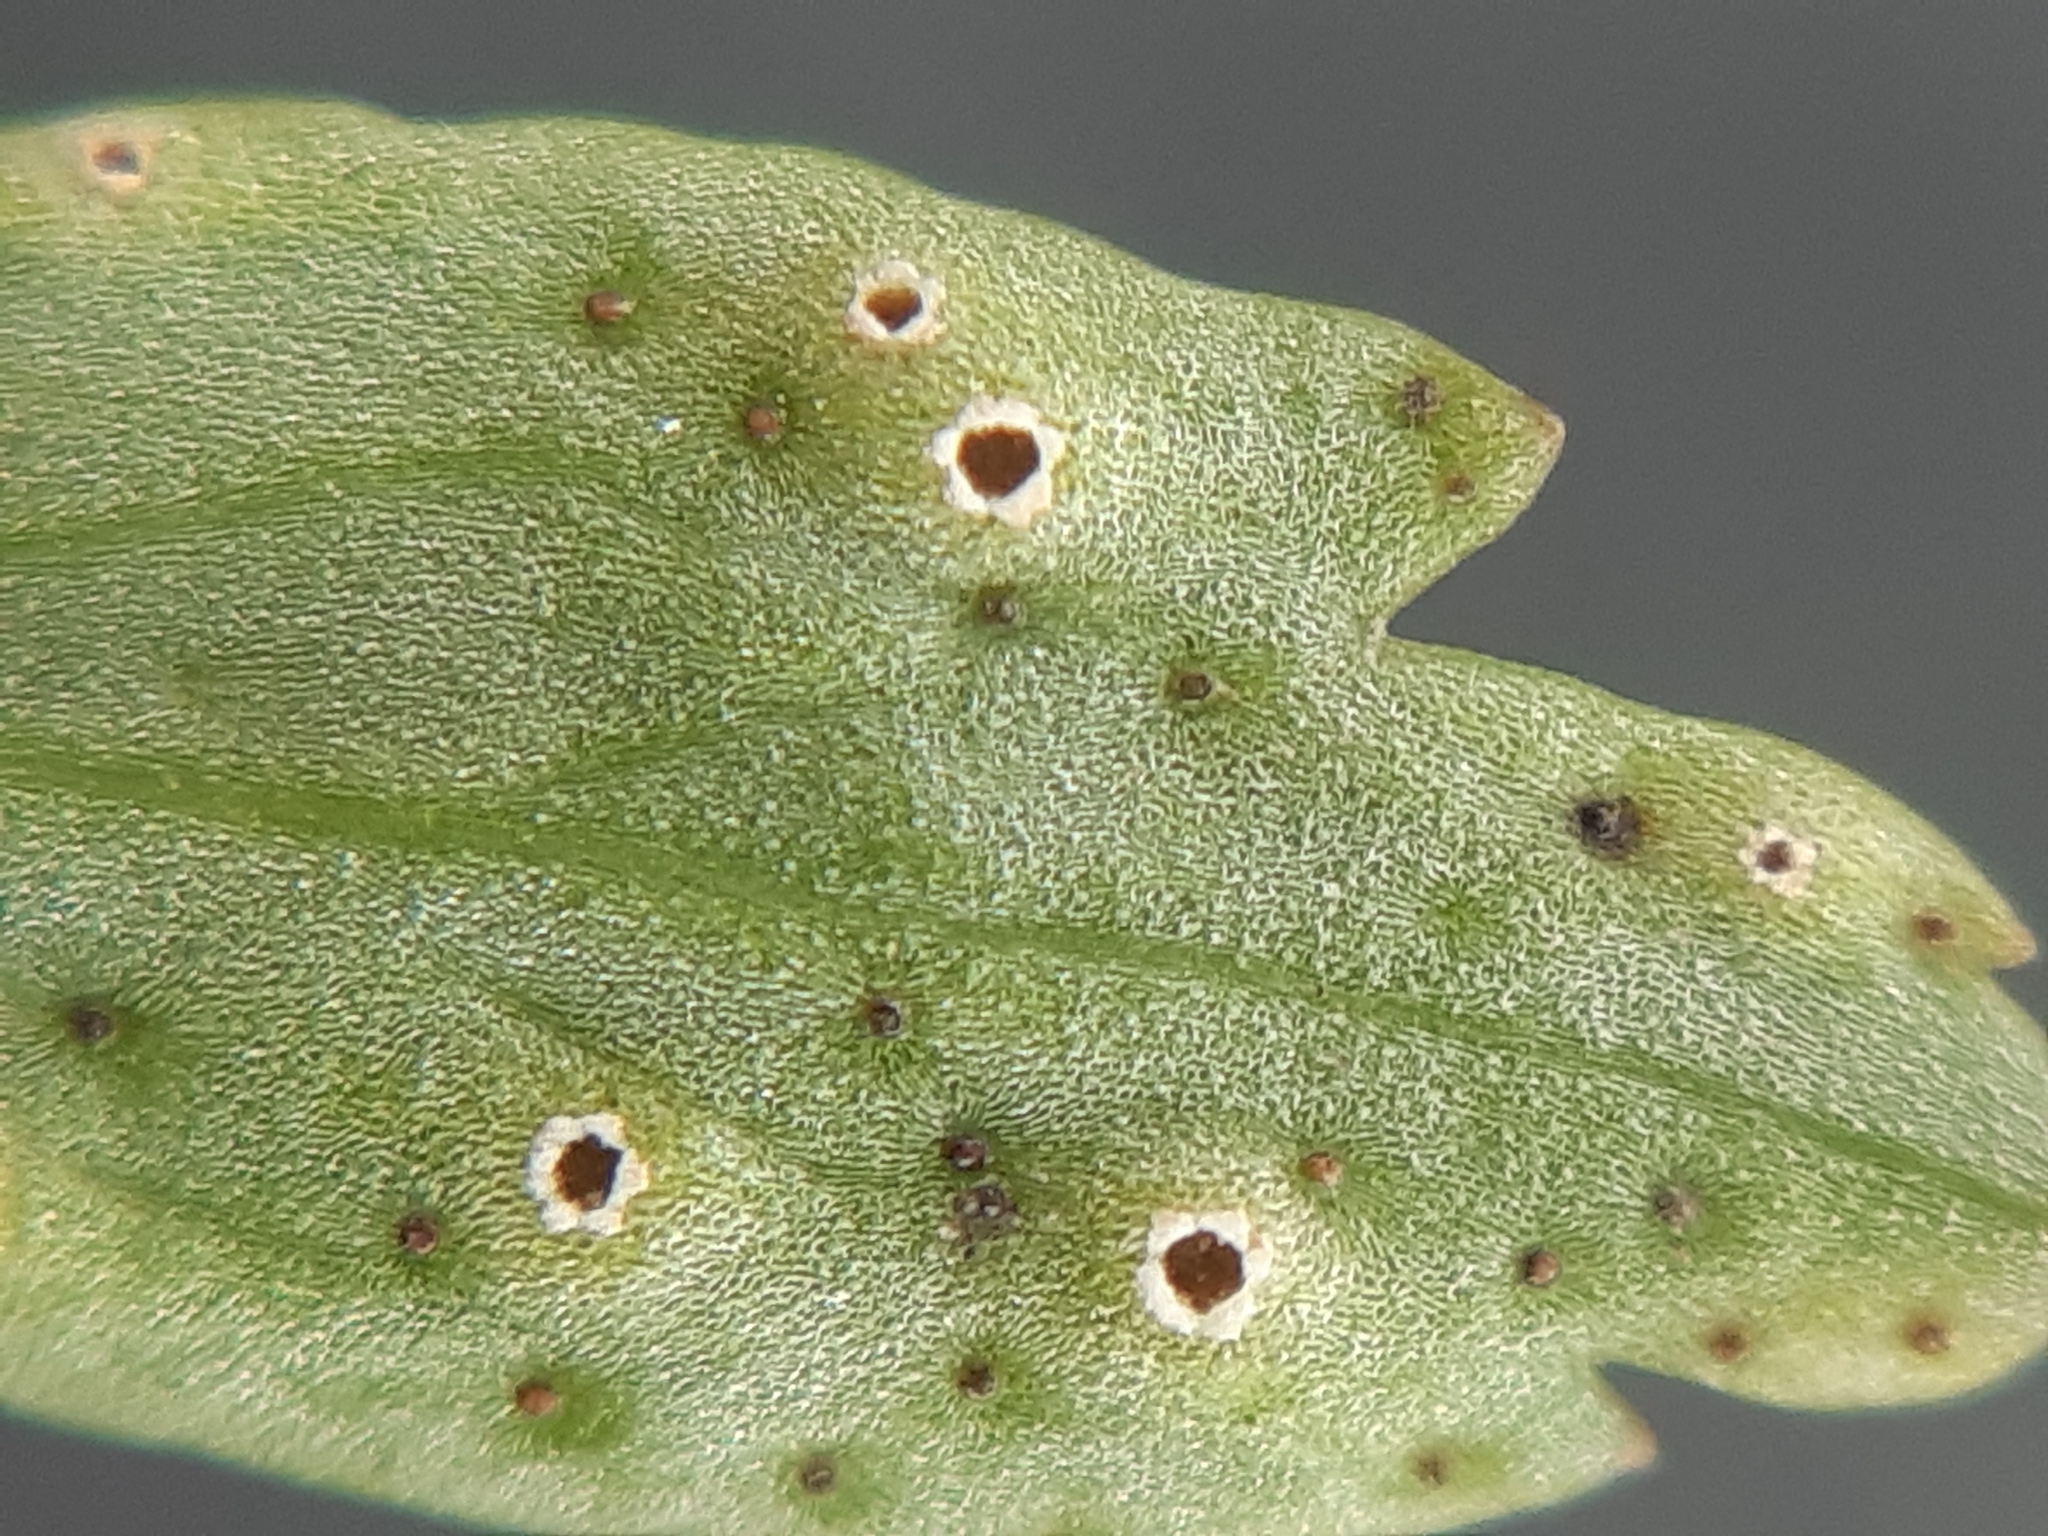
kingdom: Fungi
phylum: Basidiomycota
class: Pucciniomycetes
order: Pucciniales
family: Tranzscheliaceae
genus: Tranzschelia
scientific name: Tranzschelia pruni-spinosae
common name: Blackthorn rust
